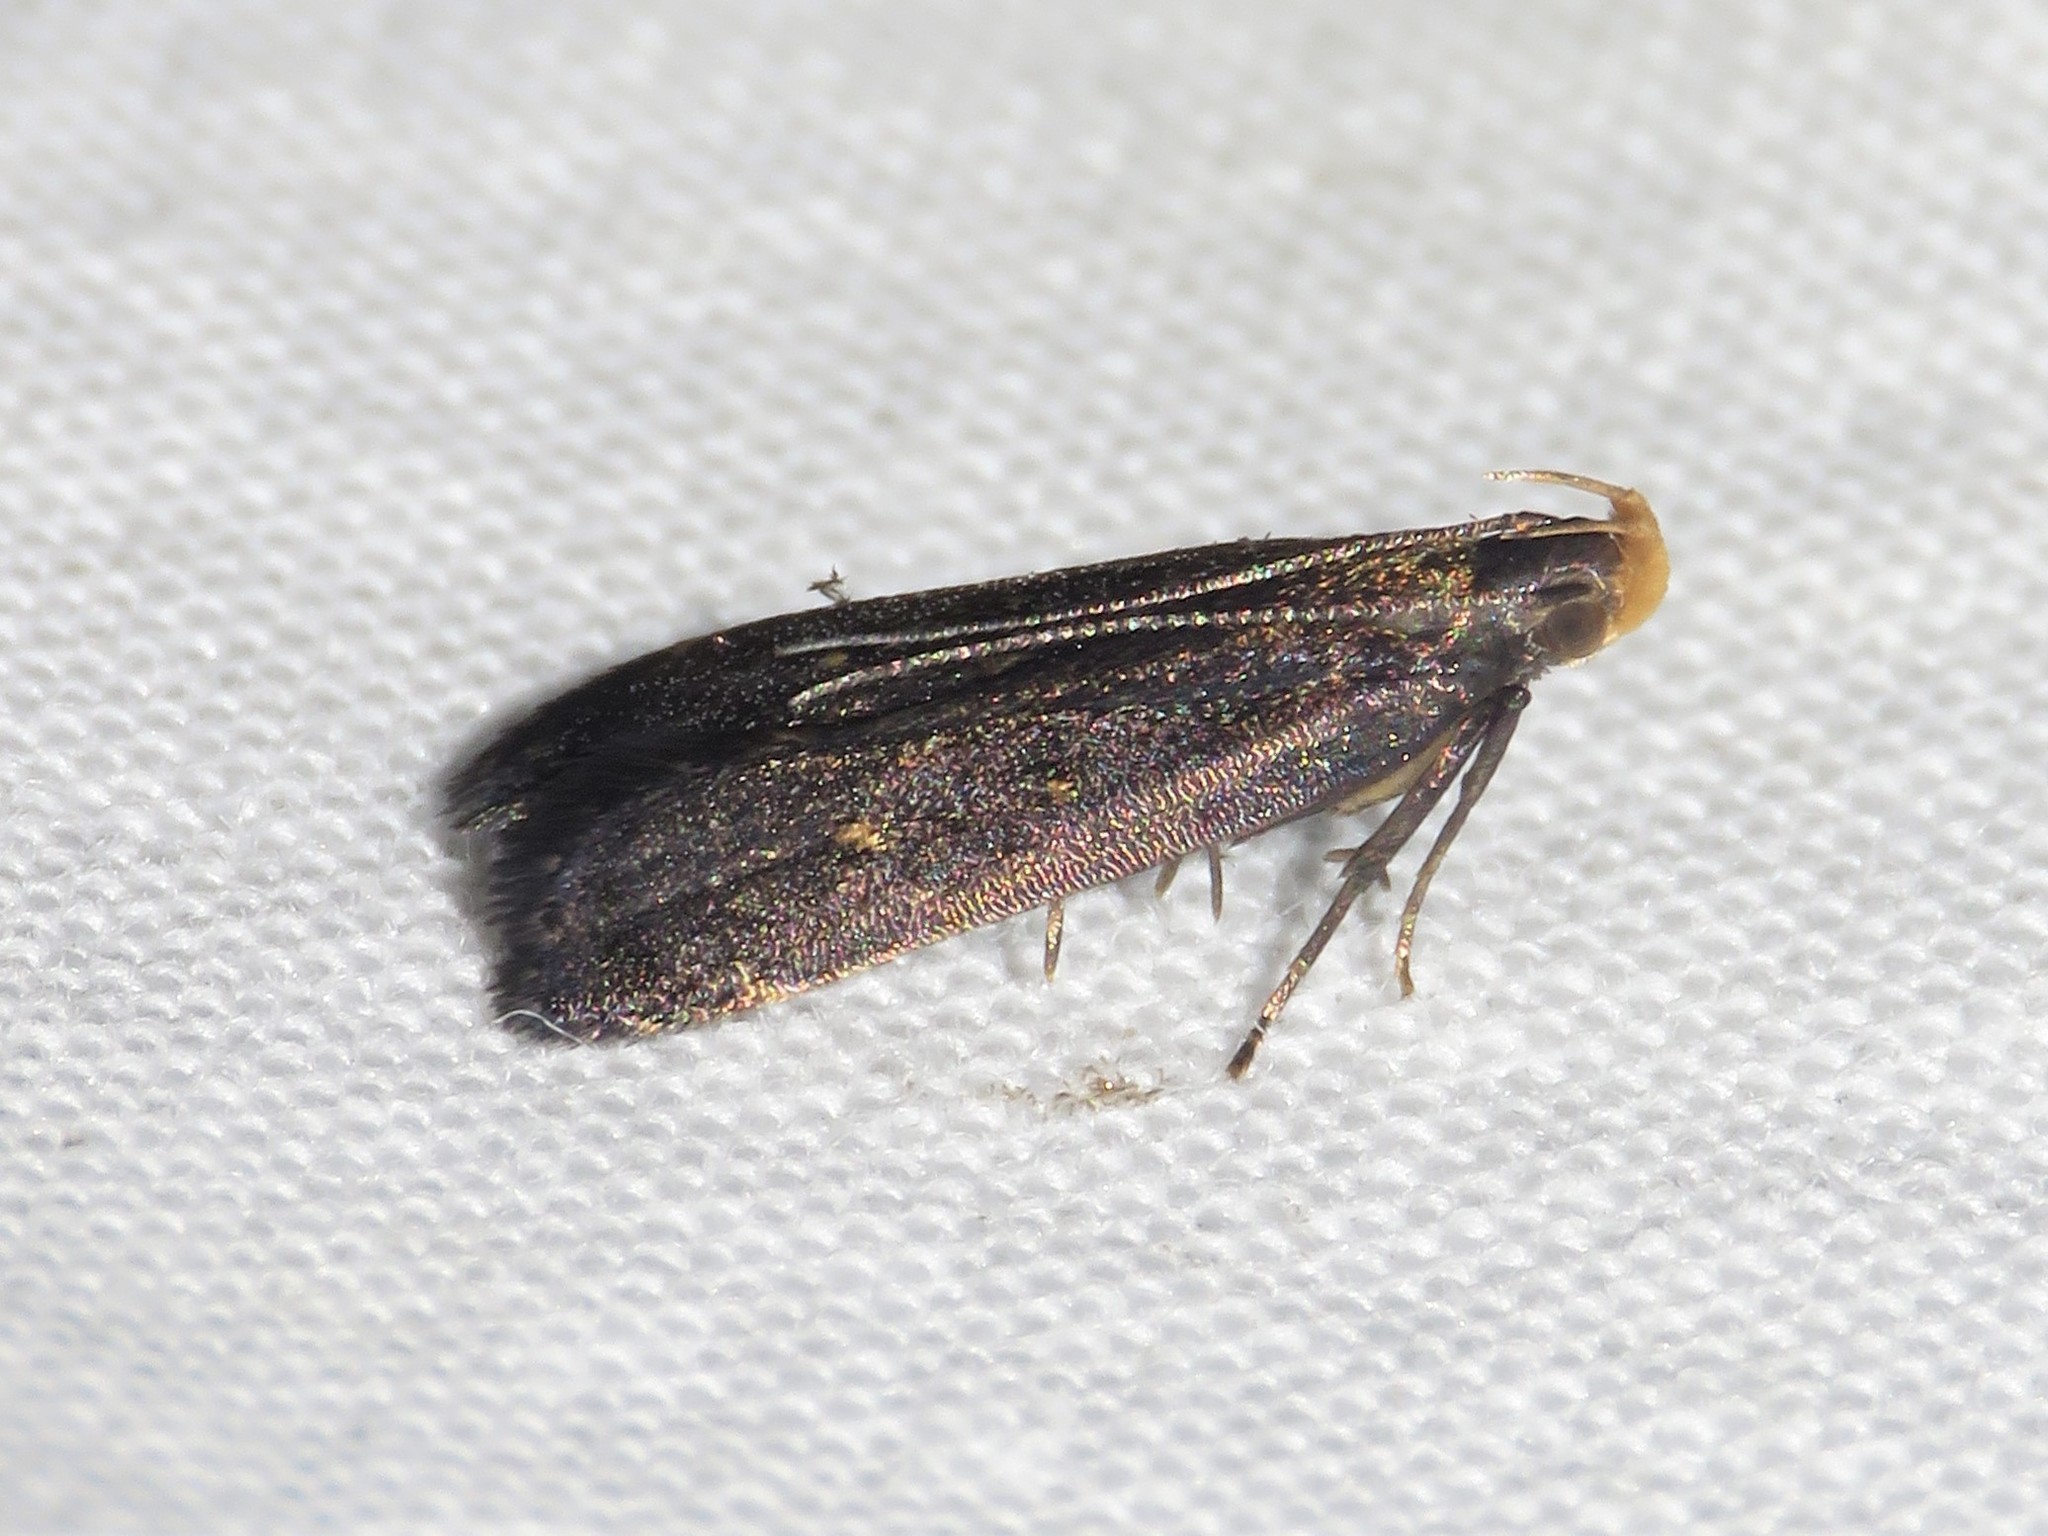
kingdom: Animalia
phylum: Arthropoda
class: Insecta
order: Lepidoptera
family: Gelechiidae
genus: Dichomeris
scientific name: Dichomeris juncidella
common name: Orange-dotted dichomeris moth
